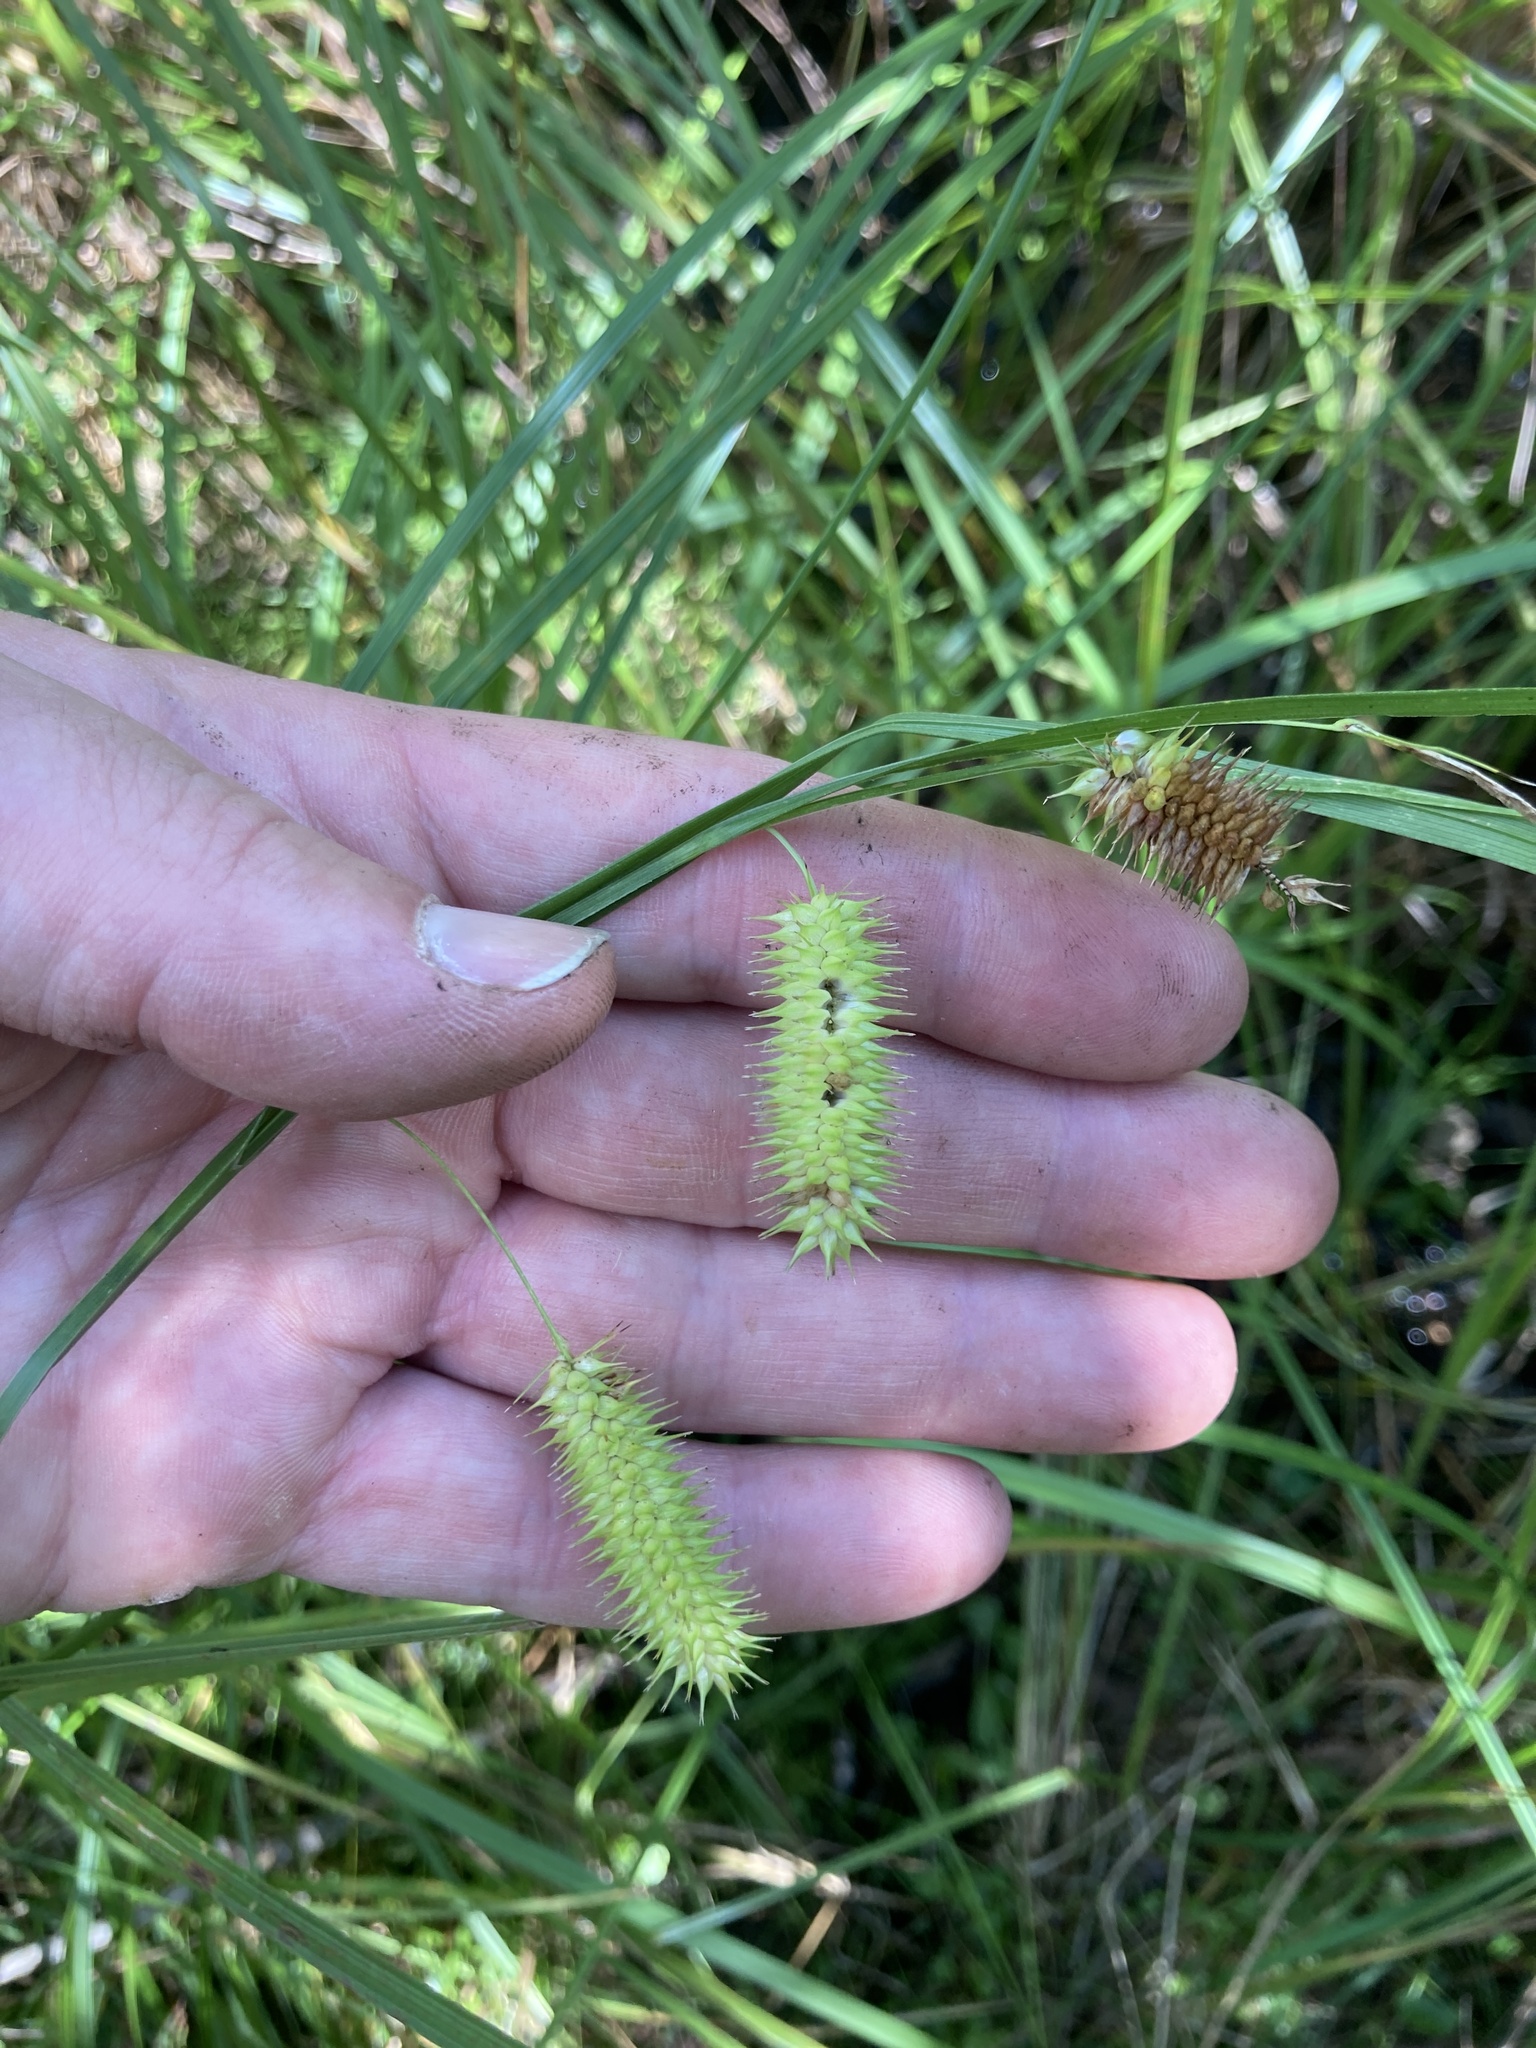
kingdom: Plantae
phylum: Tracheophyta
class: Liliopsida
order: Poales
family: Cyperaceae
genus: Carex
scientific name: Carex hystericina
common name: Bottlebrush sedge
